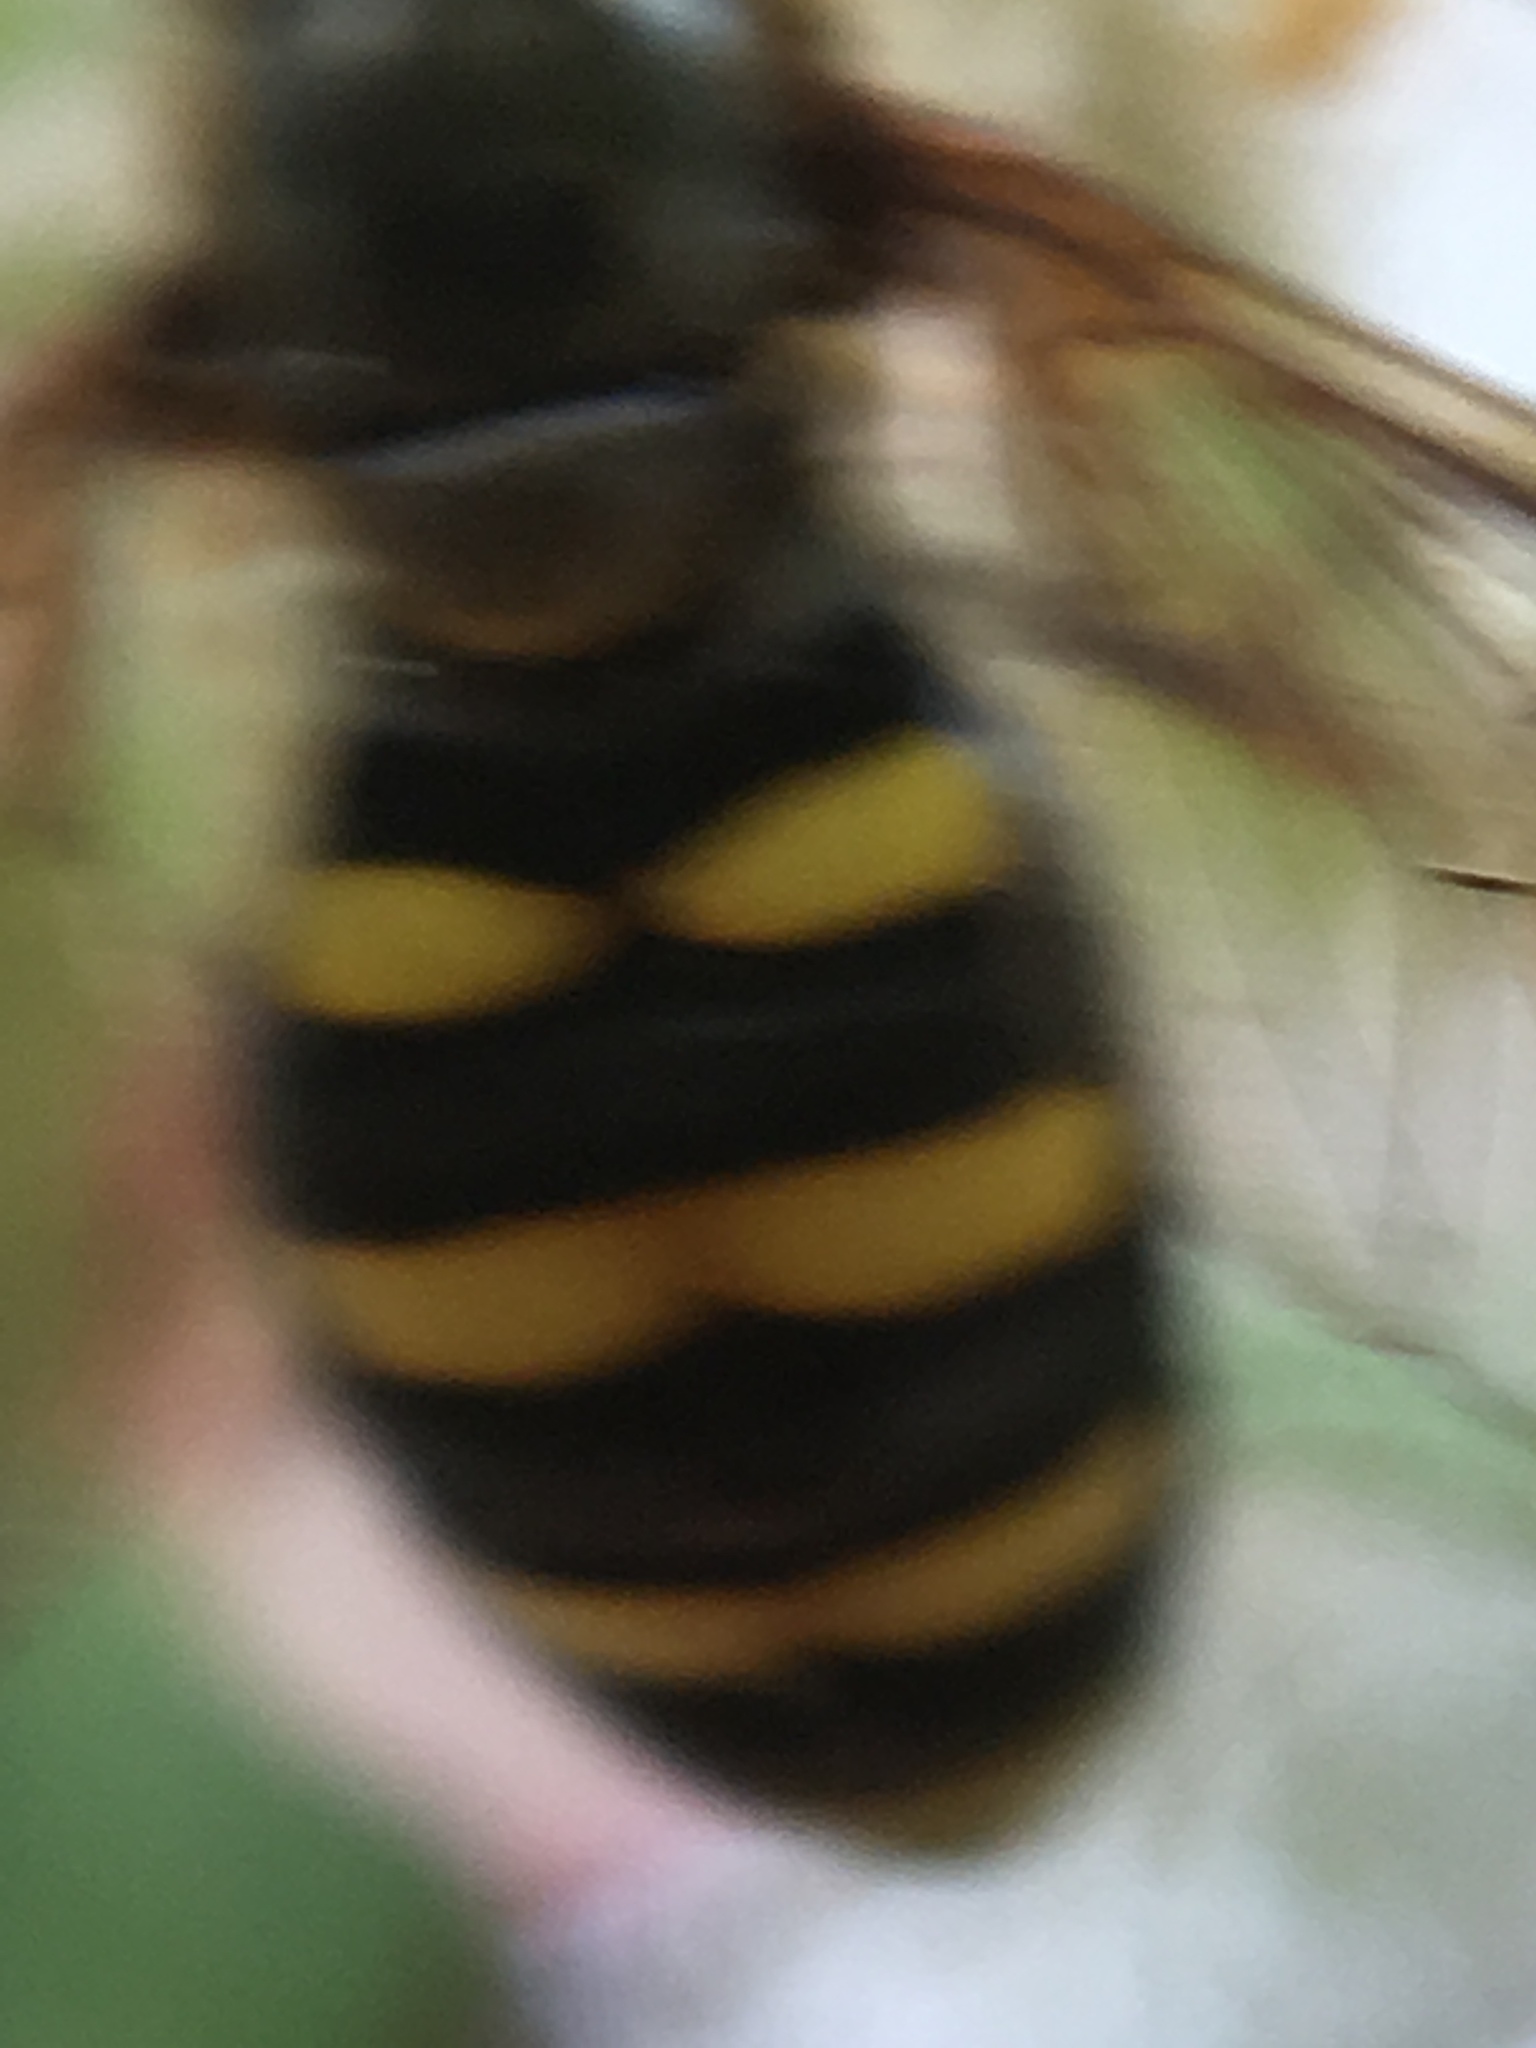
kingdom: Animalia
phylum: Arthropoda
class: Insecta
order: Diptera
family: Syrphidae
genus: Eupeodes
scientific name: Eupeodes
